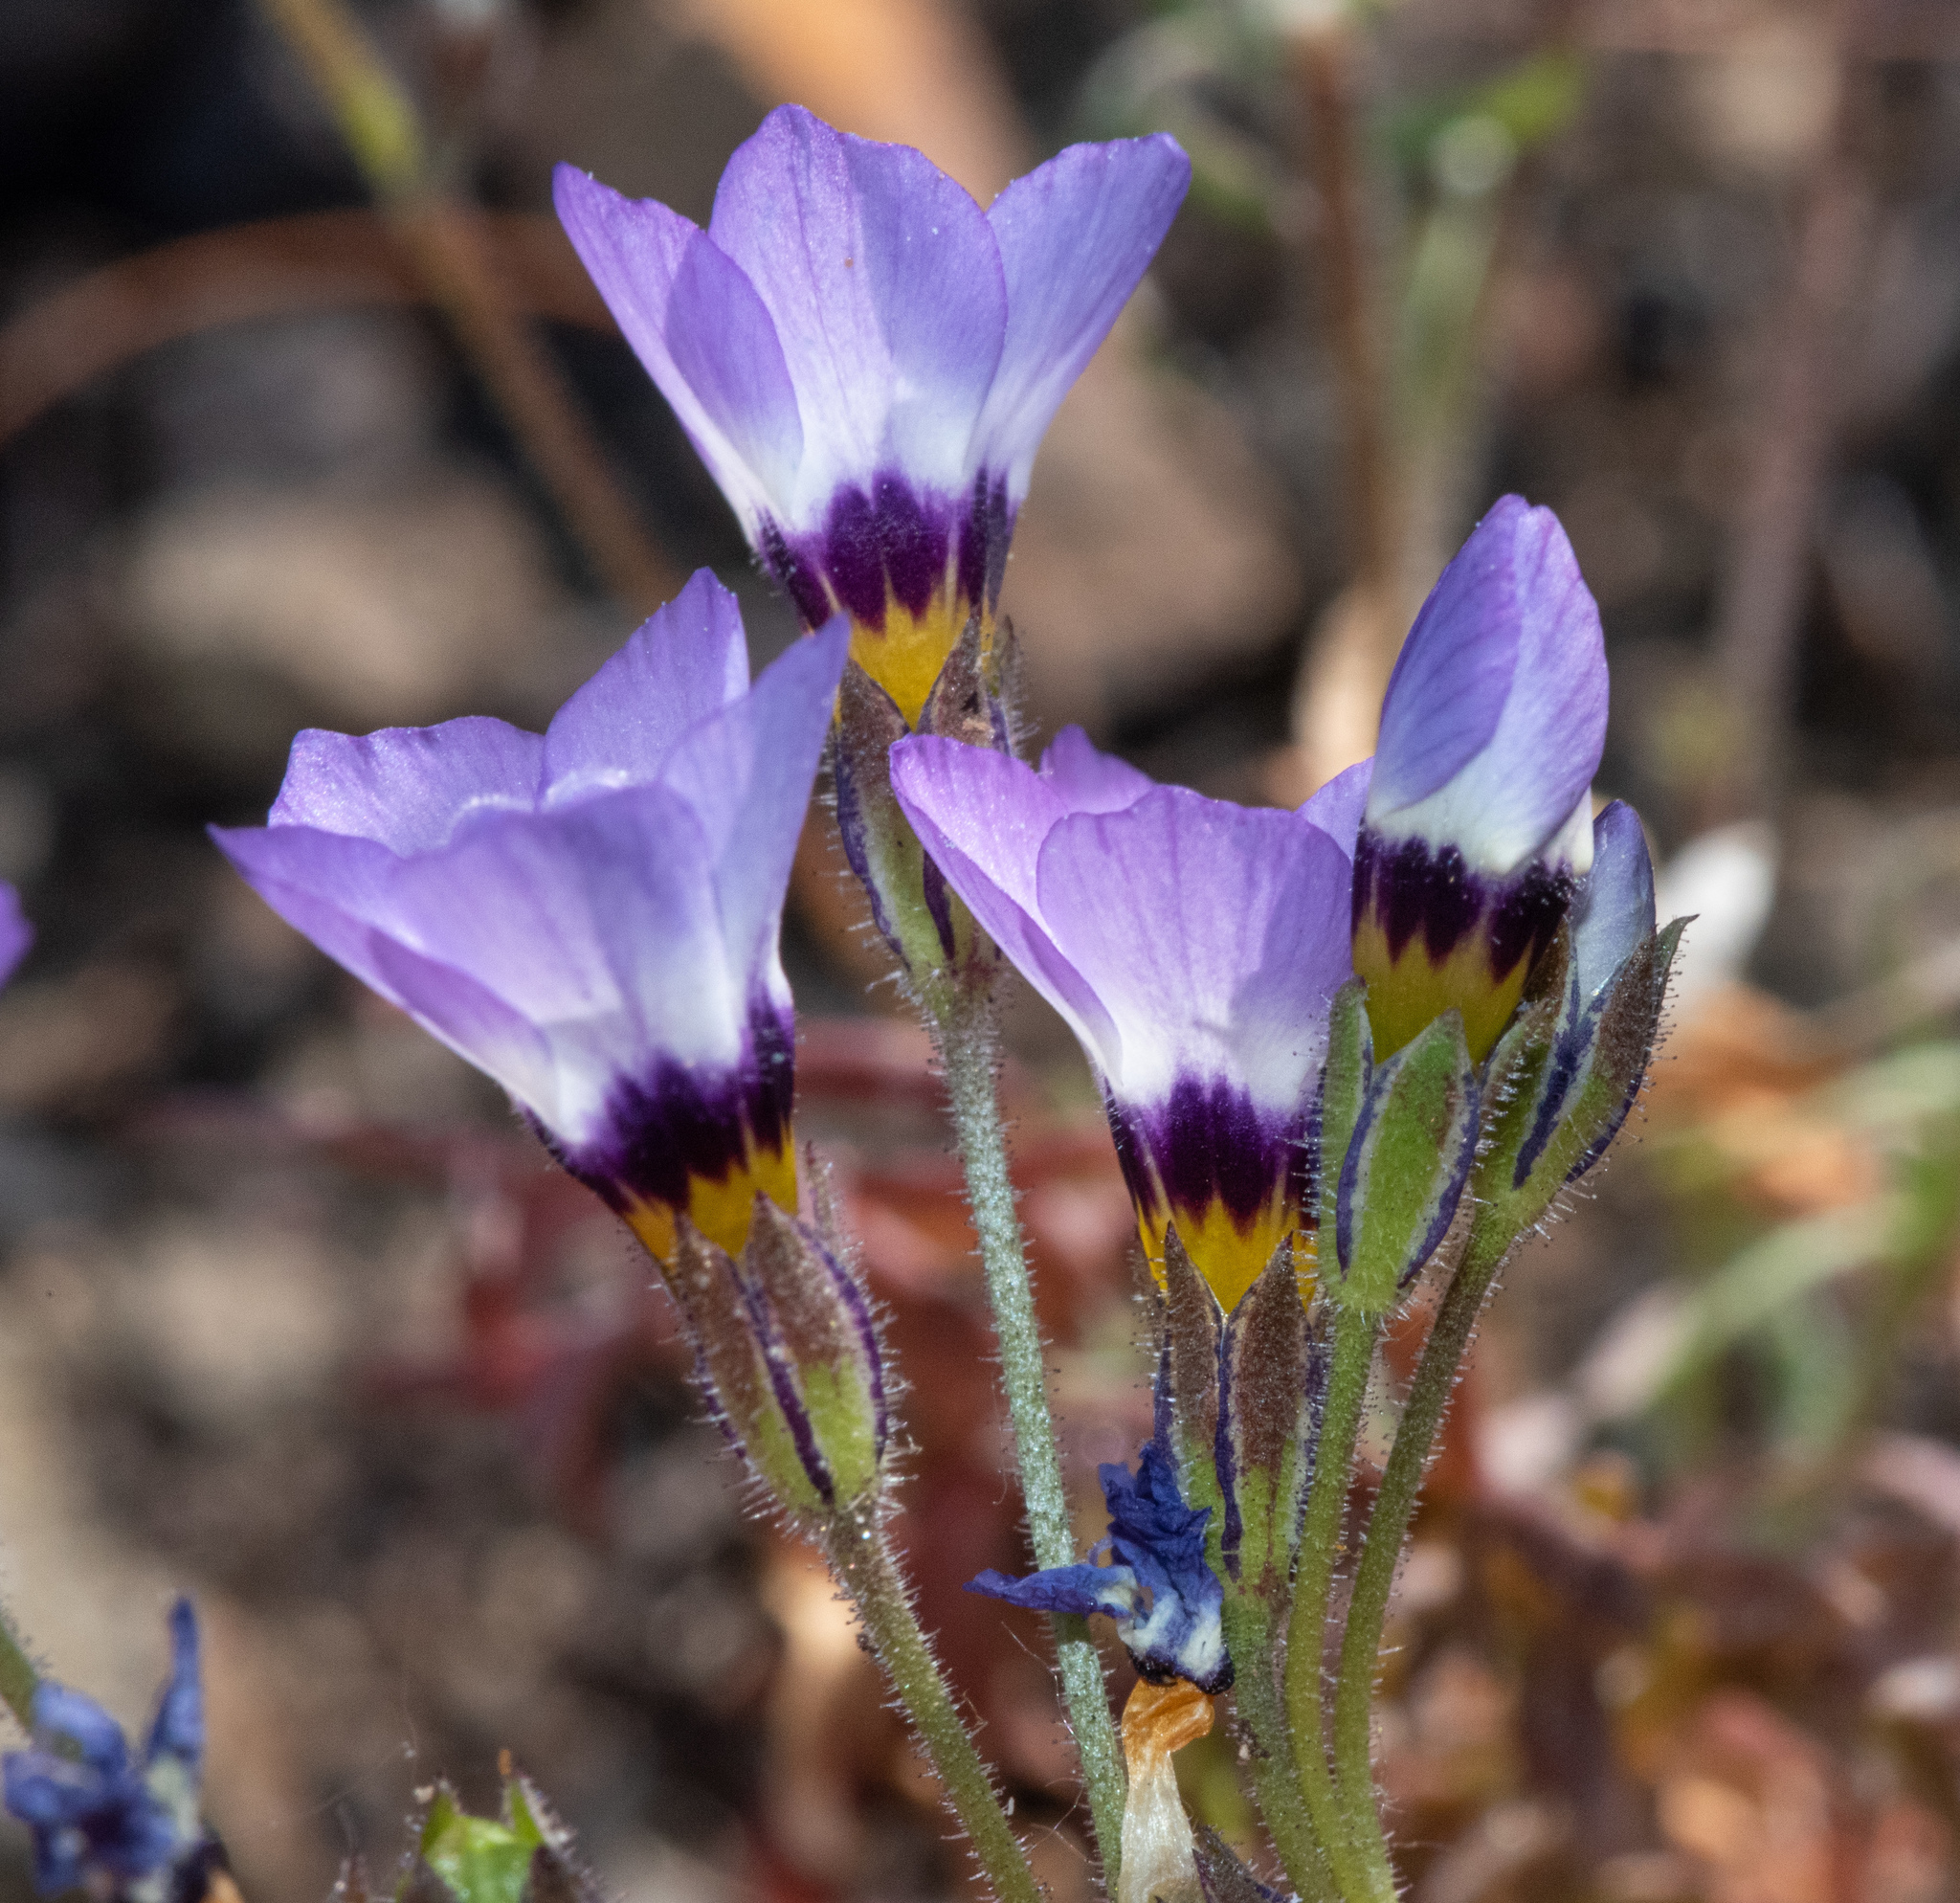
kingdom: Plantae
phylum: Tracheophyta
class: Magnoliopsida
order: Ericales
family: Polemoniaceae
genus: Gilia
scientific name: Gilia tricolor
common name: Bird's-eyes
